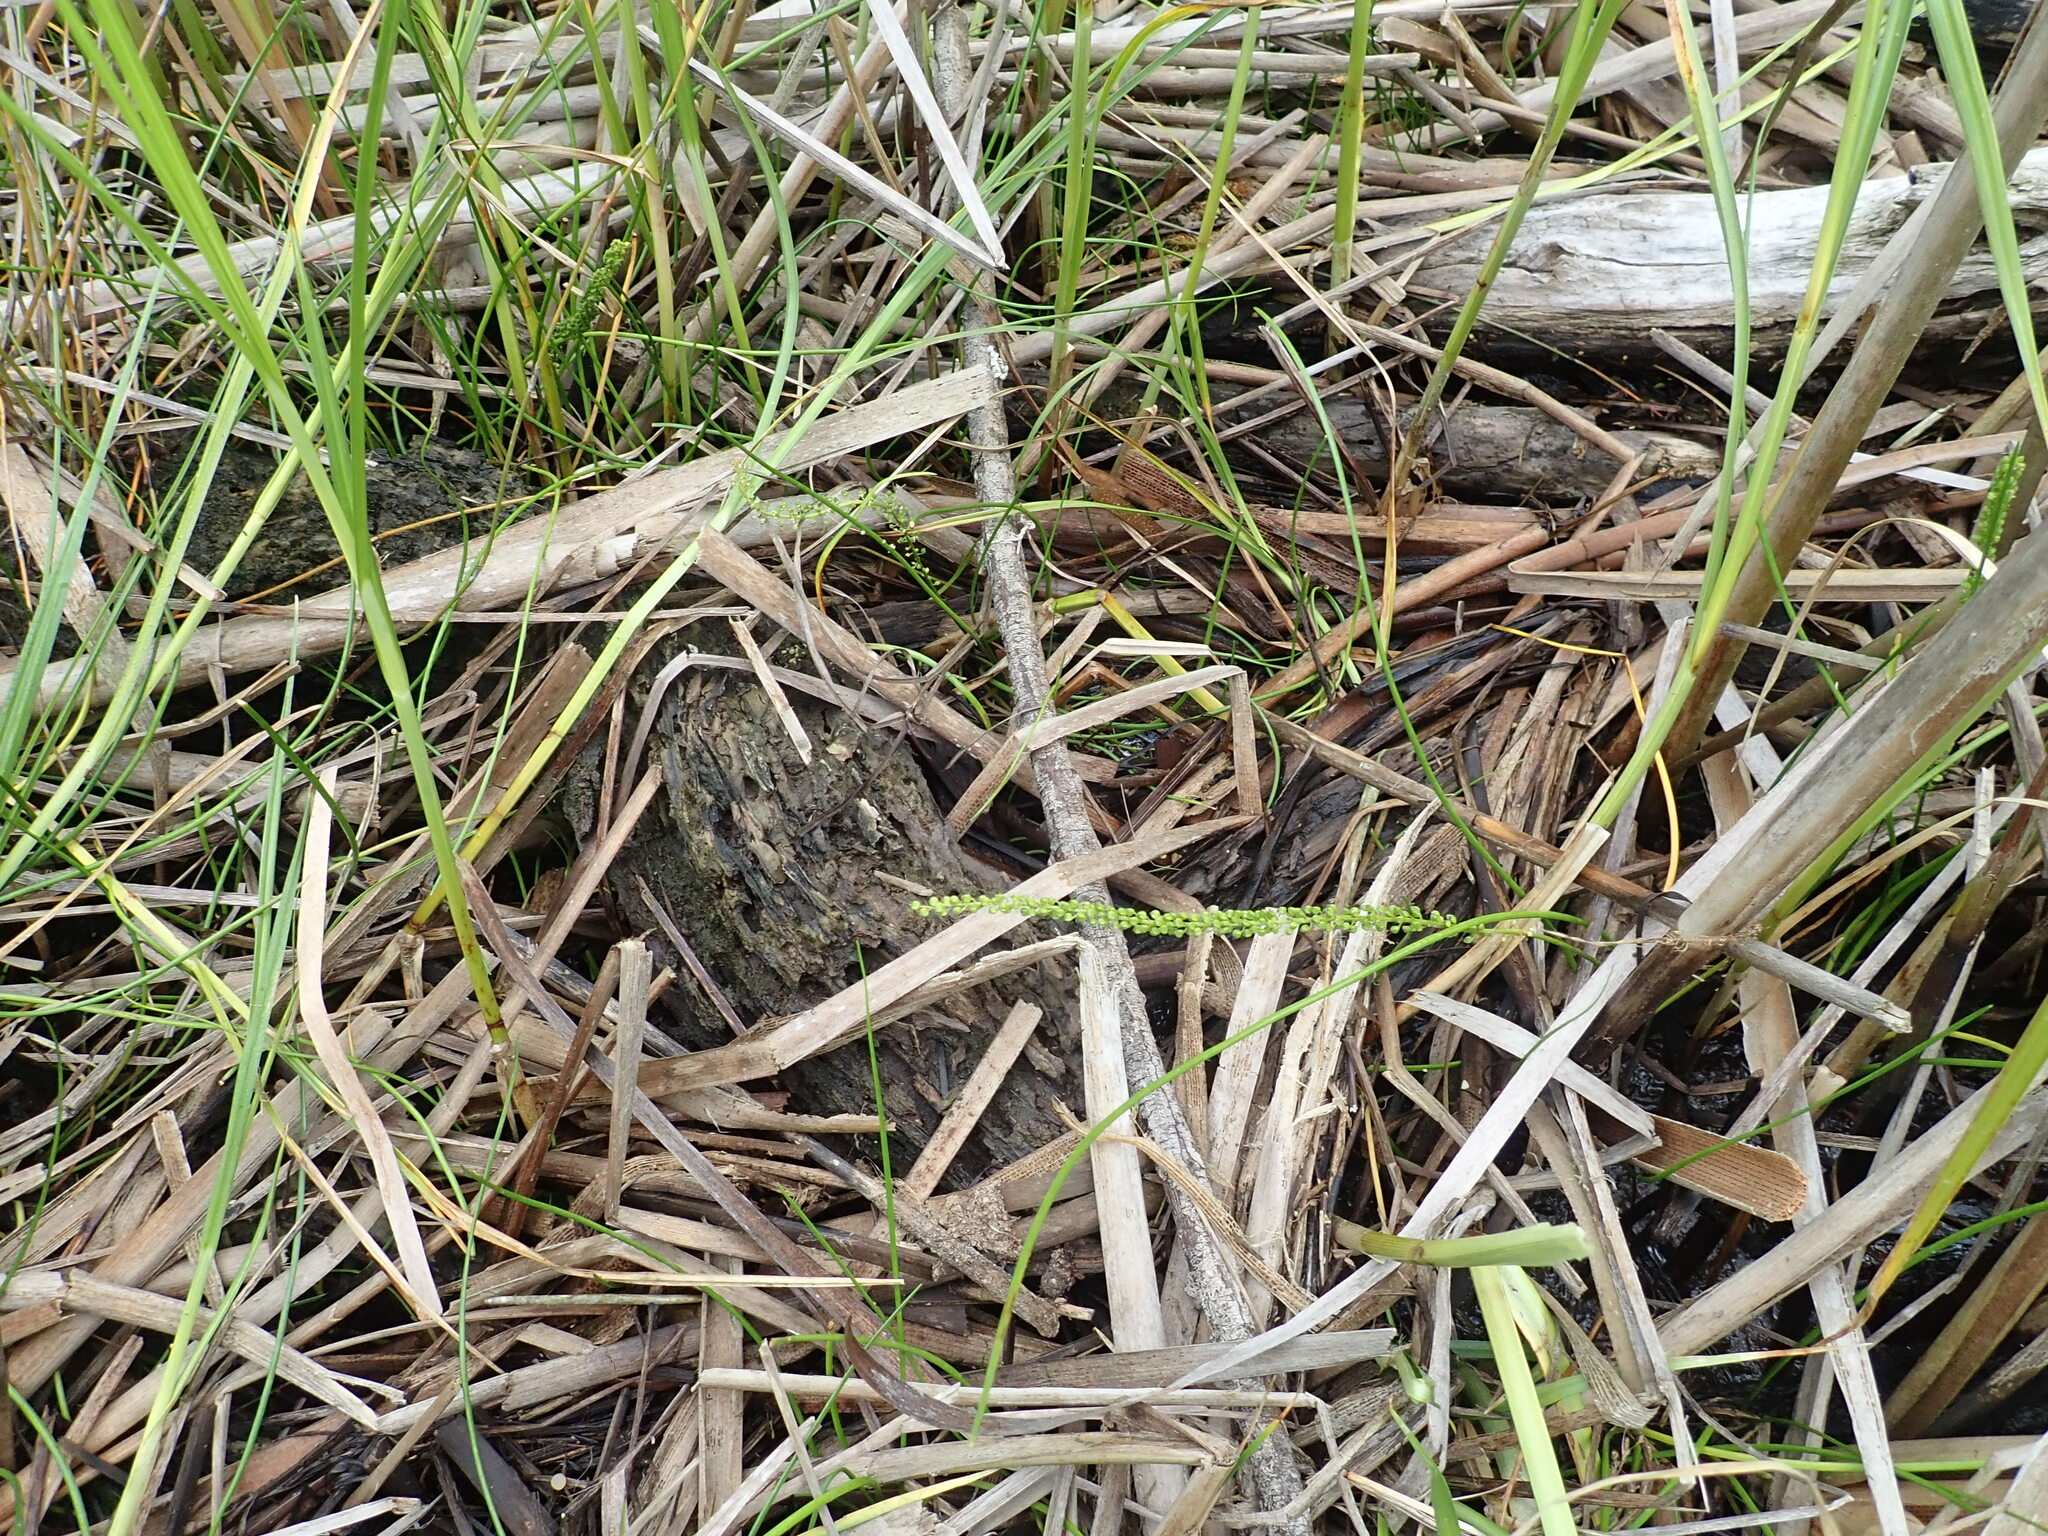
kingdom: Plantae
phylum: Tracheophyta
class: Liliopsida
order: Alismatales
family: Juncaginaceae
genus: Triglochin
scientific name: Triglochin striata
